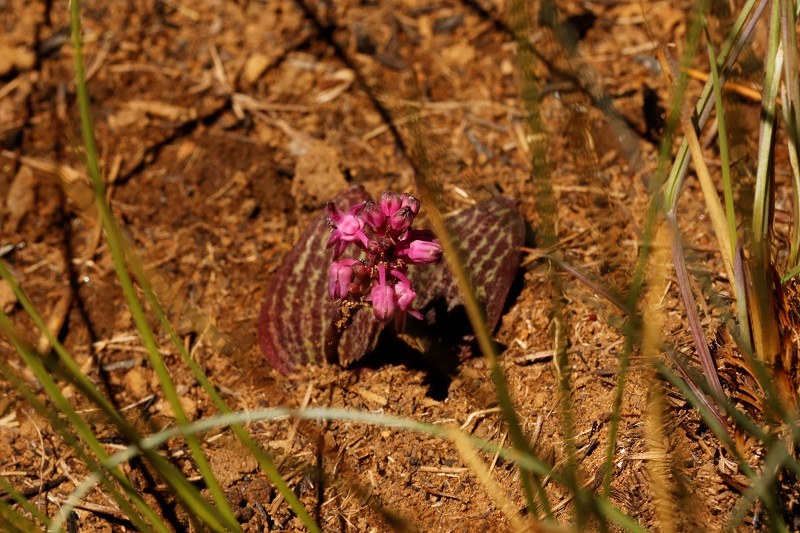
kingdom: Plantae
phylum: Tracheophyta
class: Liliopsida
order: Asparagales
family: Asparagaceae
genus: Ledebouria
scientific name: Ledebouria sandersonii
